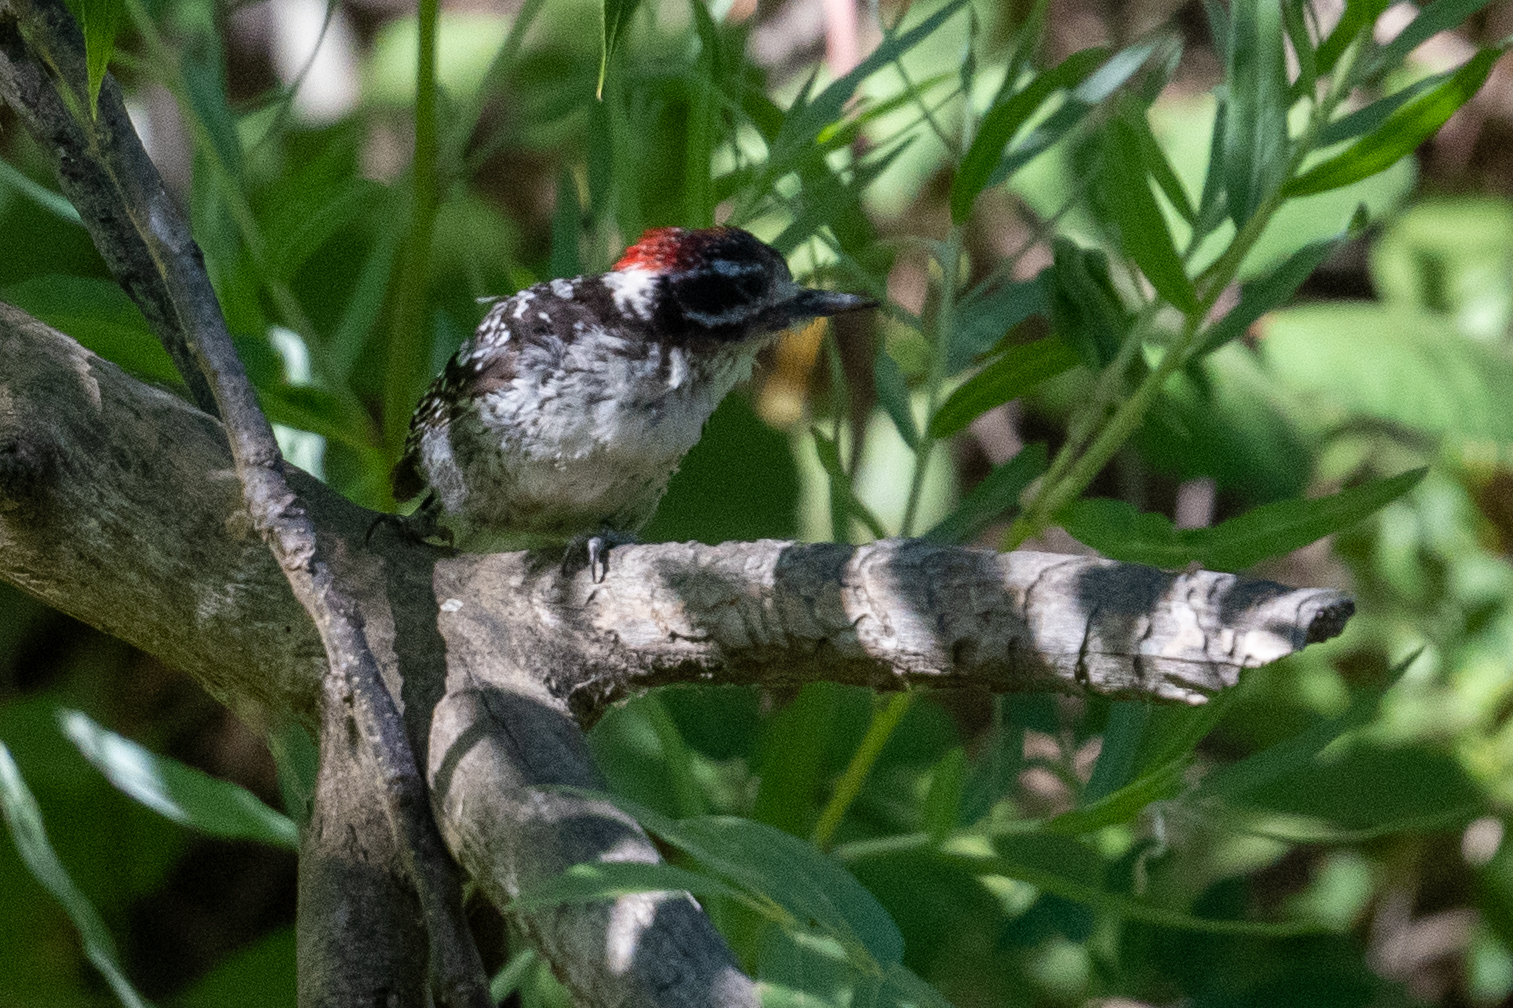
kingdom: Animalia
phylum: Chordata
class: Aves
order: Piciformes
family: Picidae
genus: Dryobates
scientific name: Dryobates nuttallii
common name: Nuttall's woodpecker
